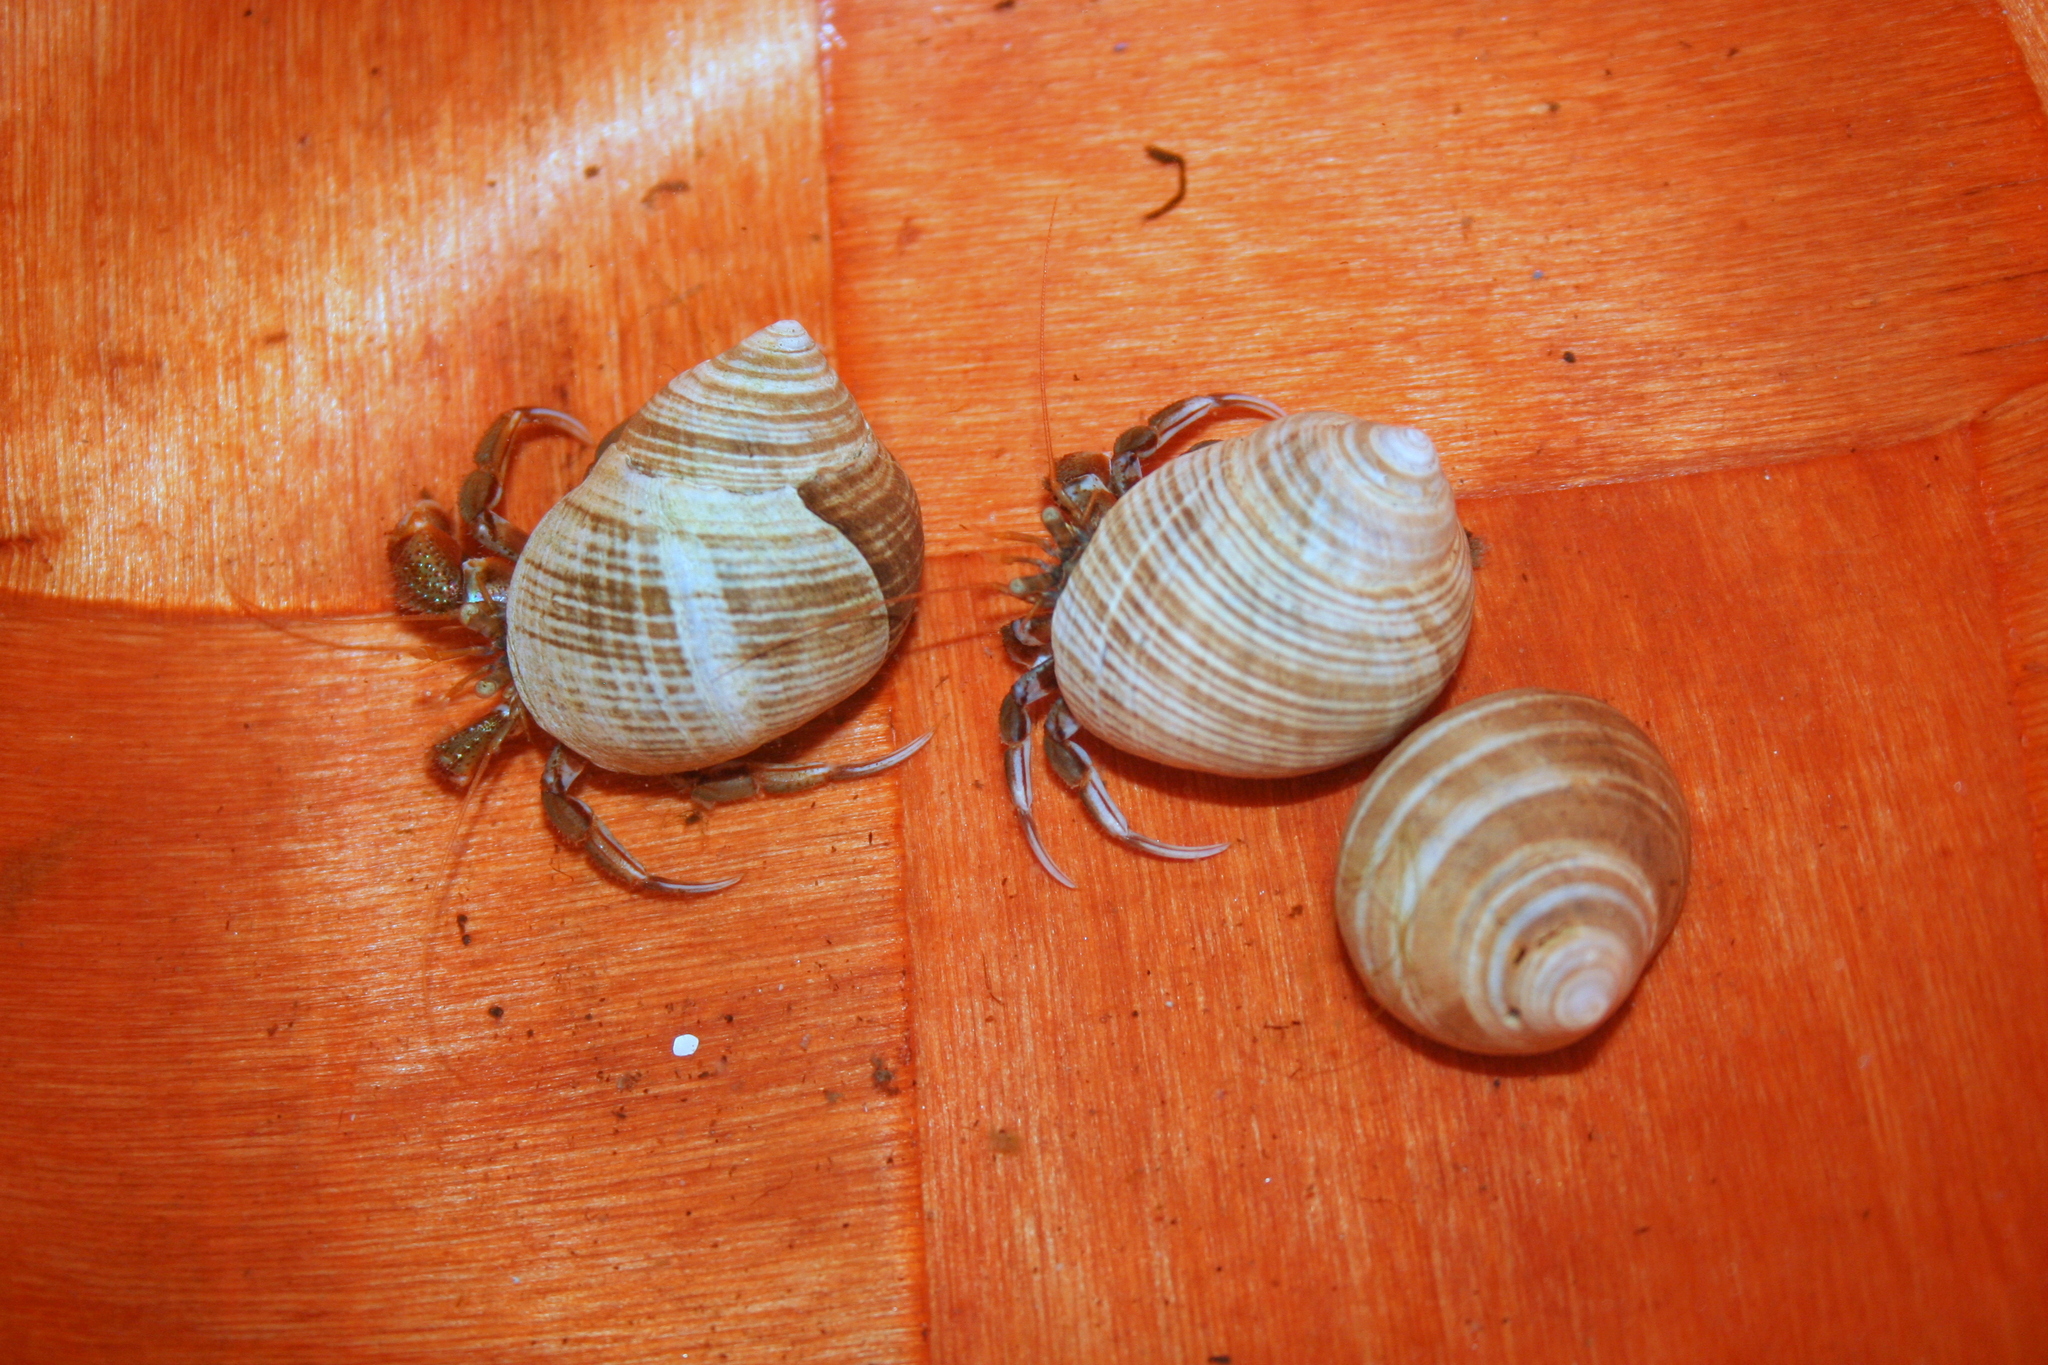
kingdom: Animalia
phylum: Arthropoda
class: Malacostraca
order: Decapoda
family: Paguridae
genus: Pagurus
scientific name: Pagurus acadianus
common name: Acadian hermit crab
